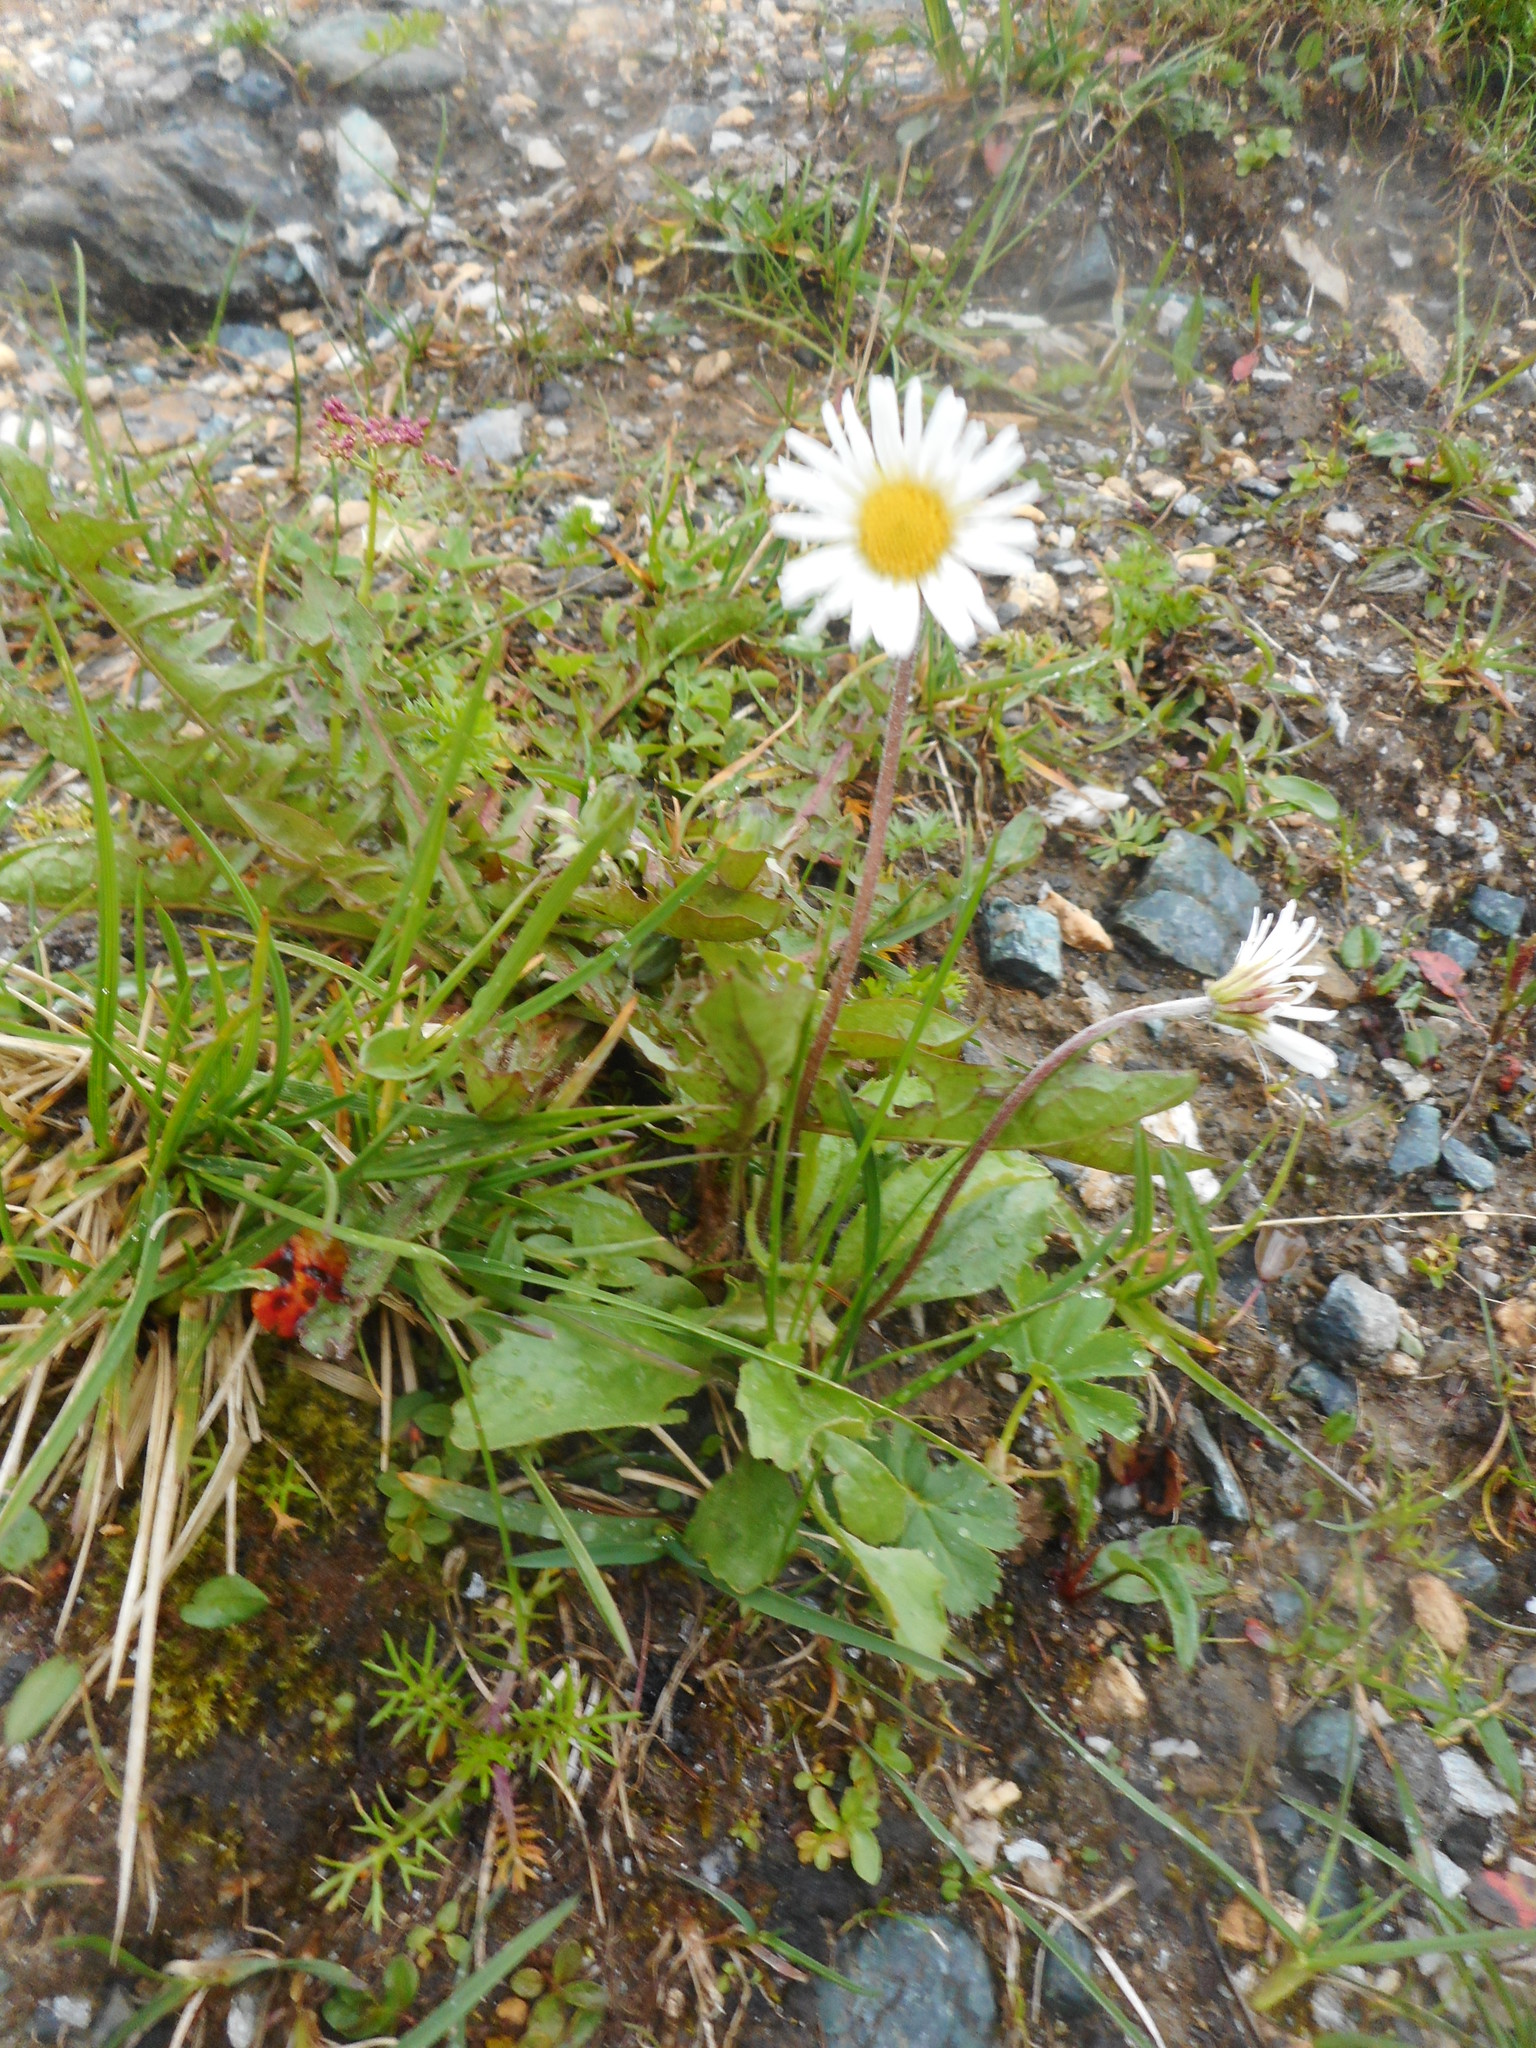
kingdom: Plantae
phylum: Tracheophyta
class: Magnoliopsida
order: Asterales
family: Asteraceae
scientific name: Asteraceae
